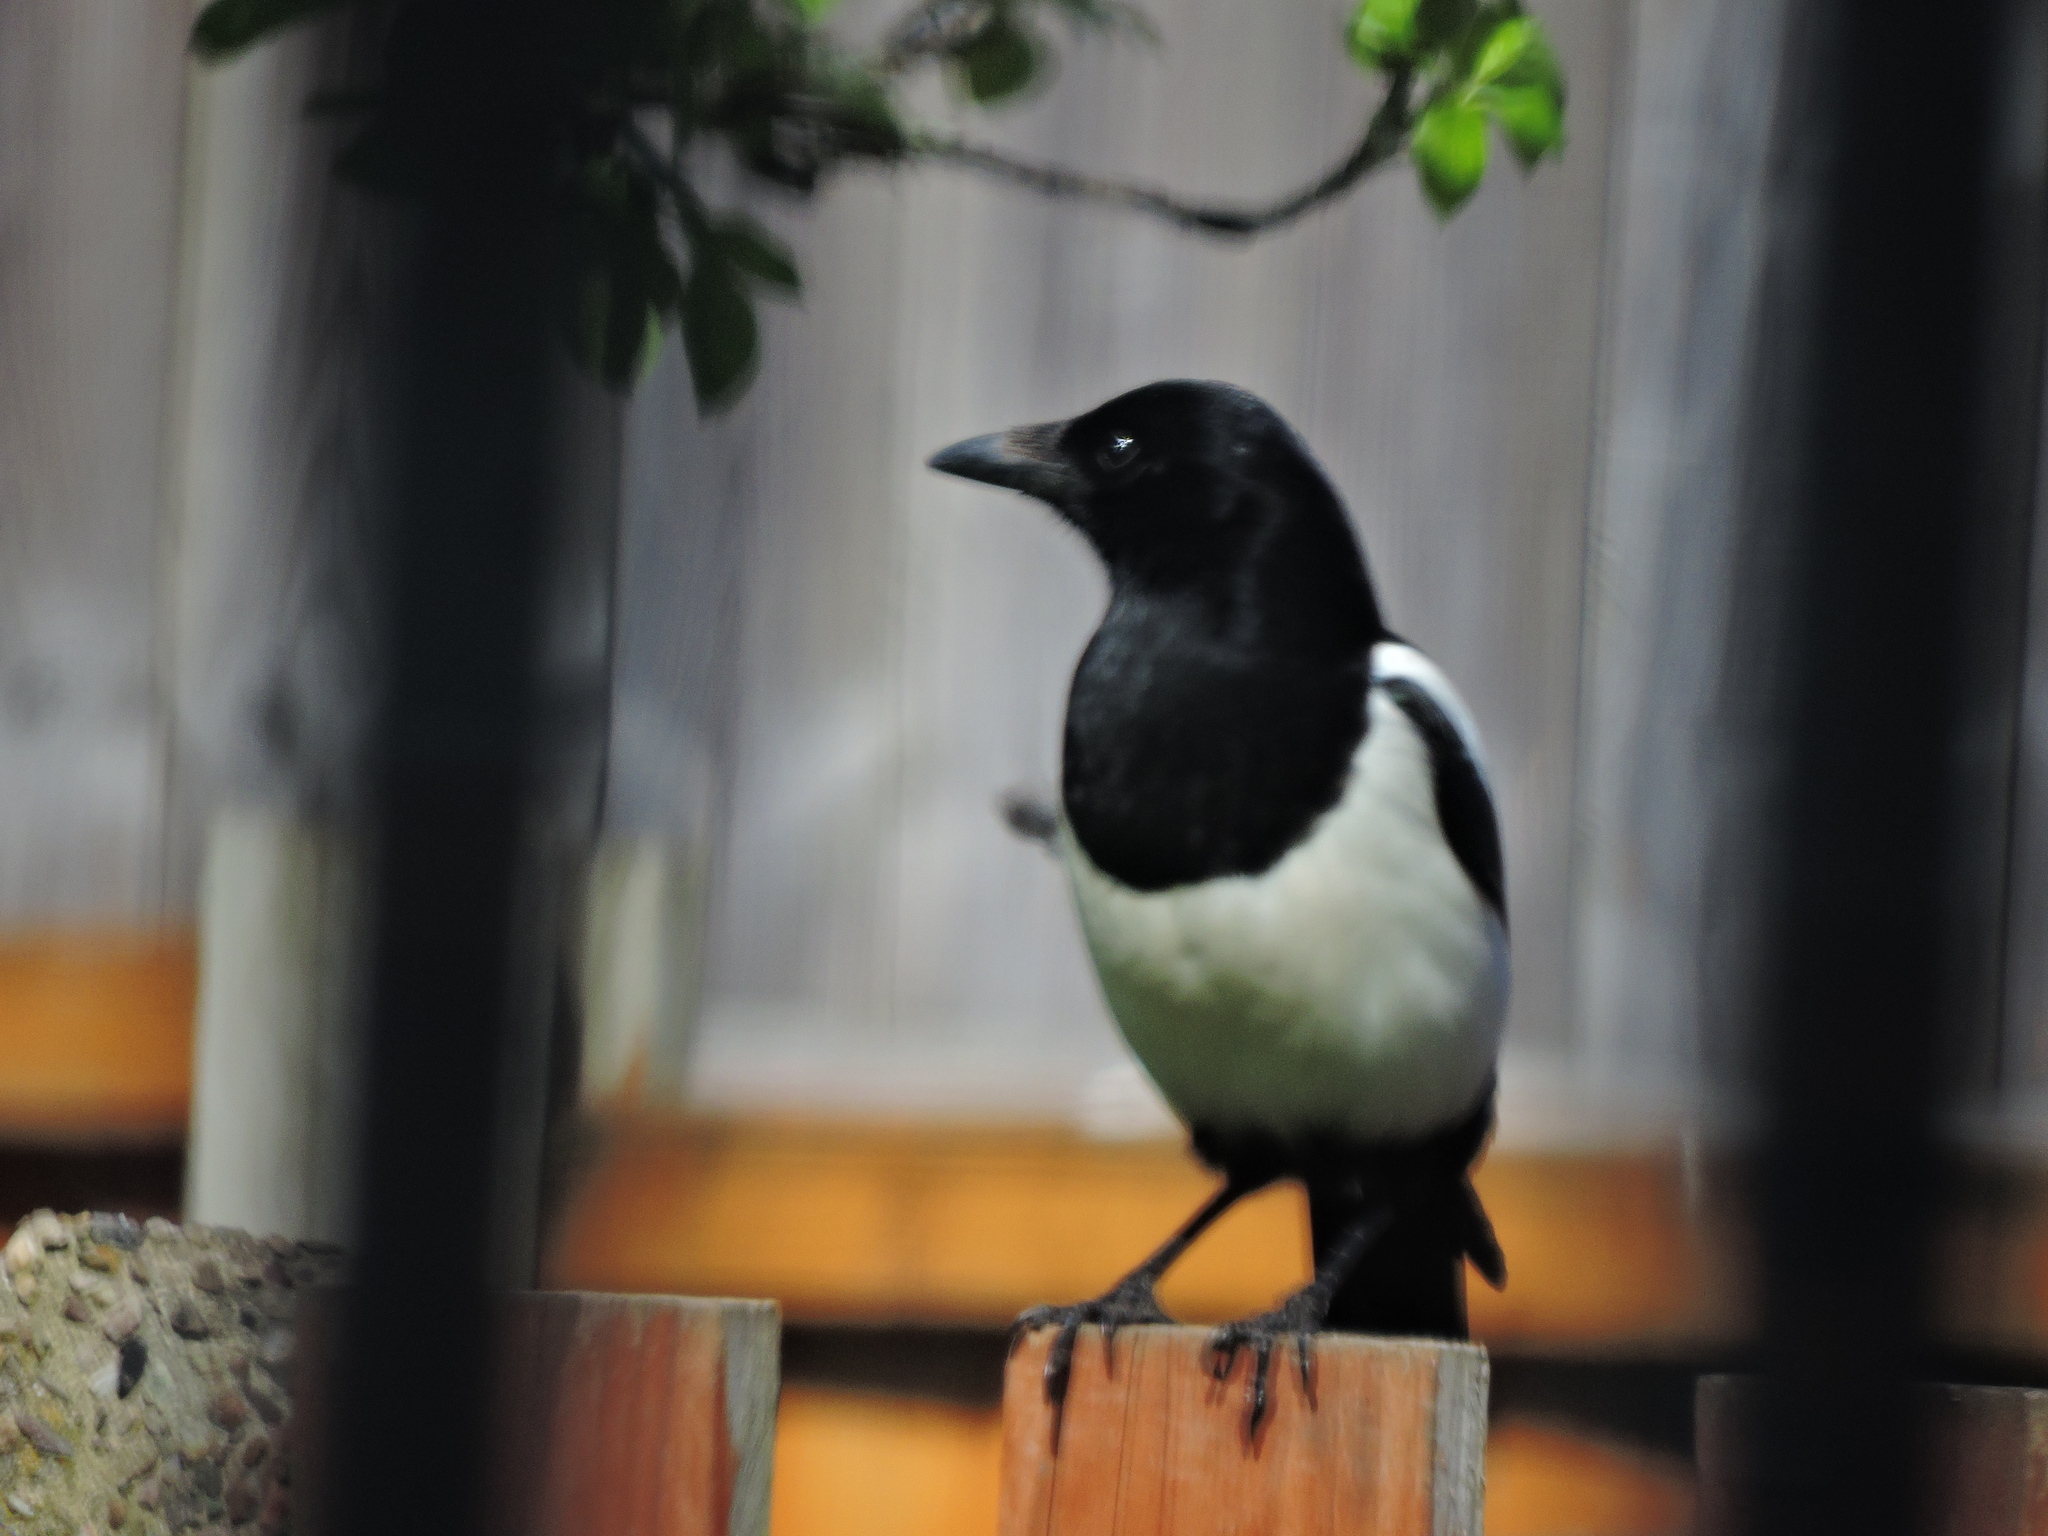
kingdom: Animalia
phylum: Chordata
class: Aves
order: Passeriformes
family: Corvidae
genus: Pica
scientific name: Pica pica
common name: Eurasian magpie
